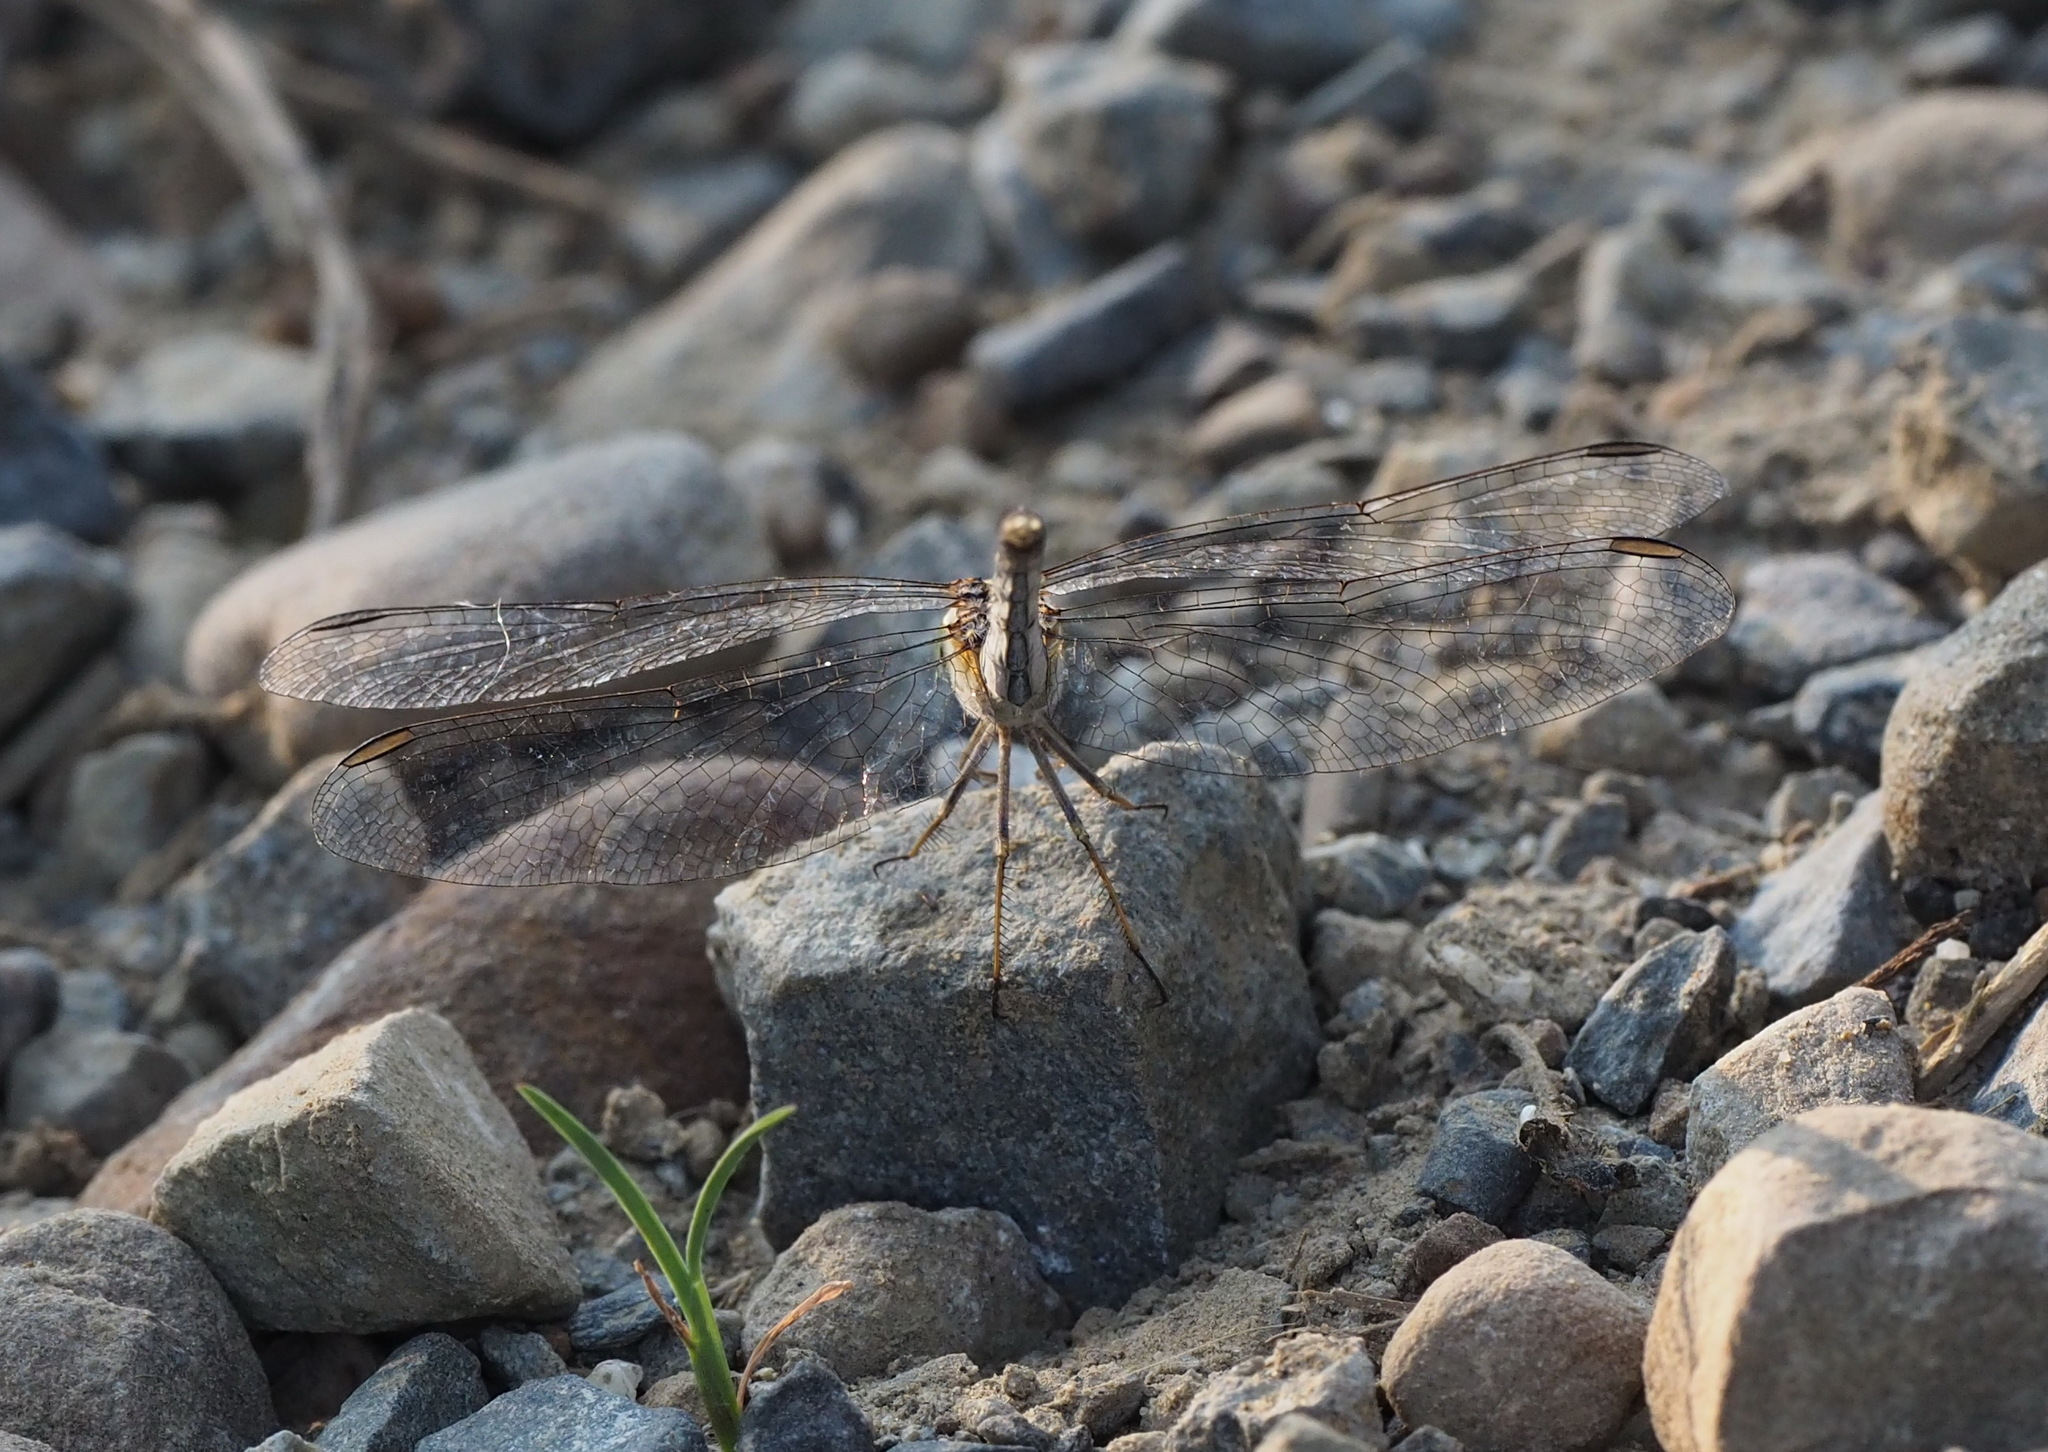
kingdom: Animalia
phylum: Arthropoda
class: Insecta
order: Odonata
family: Libellulidae
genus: Diplacodes
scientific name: Diplacodes trivialis
